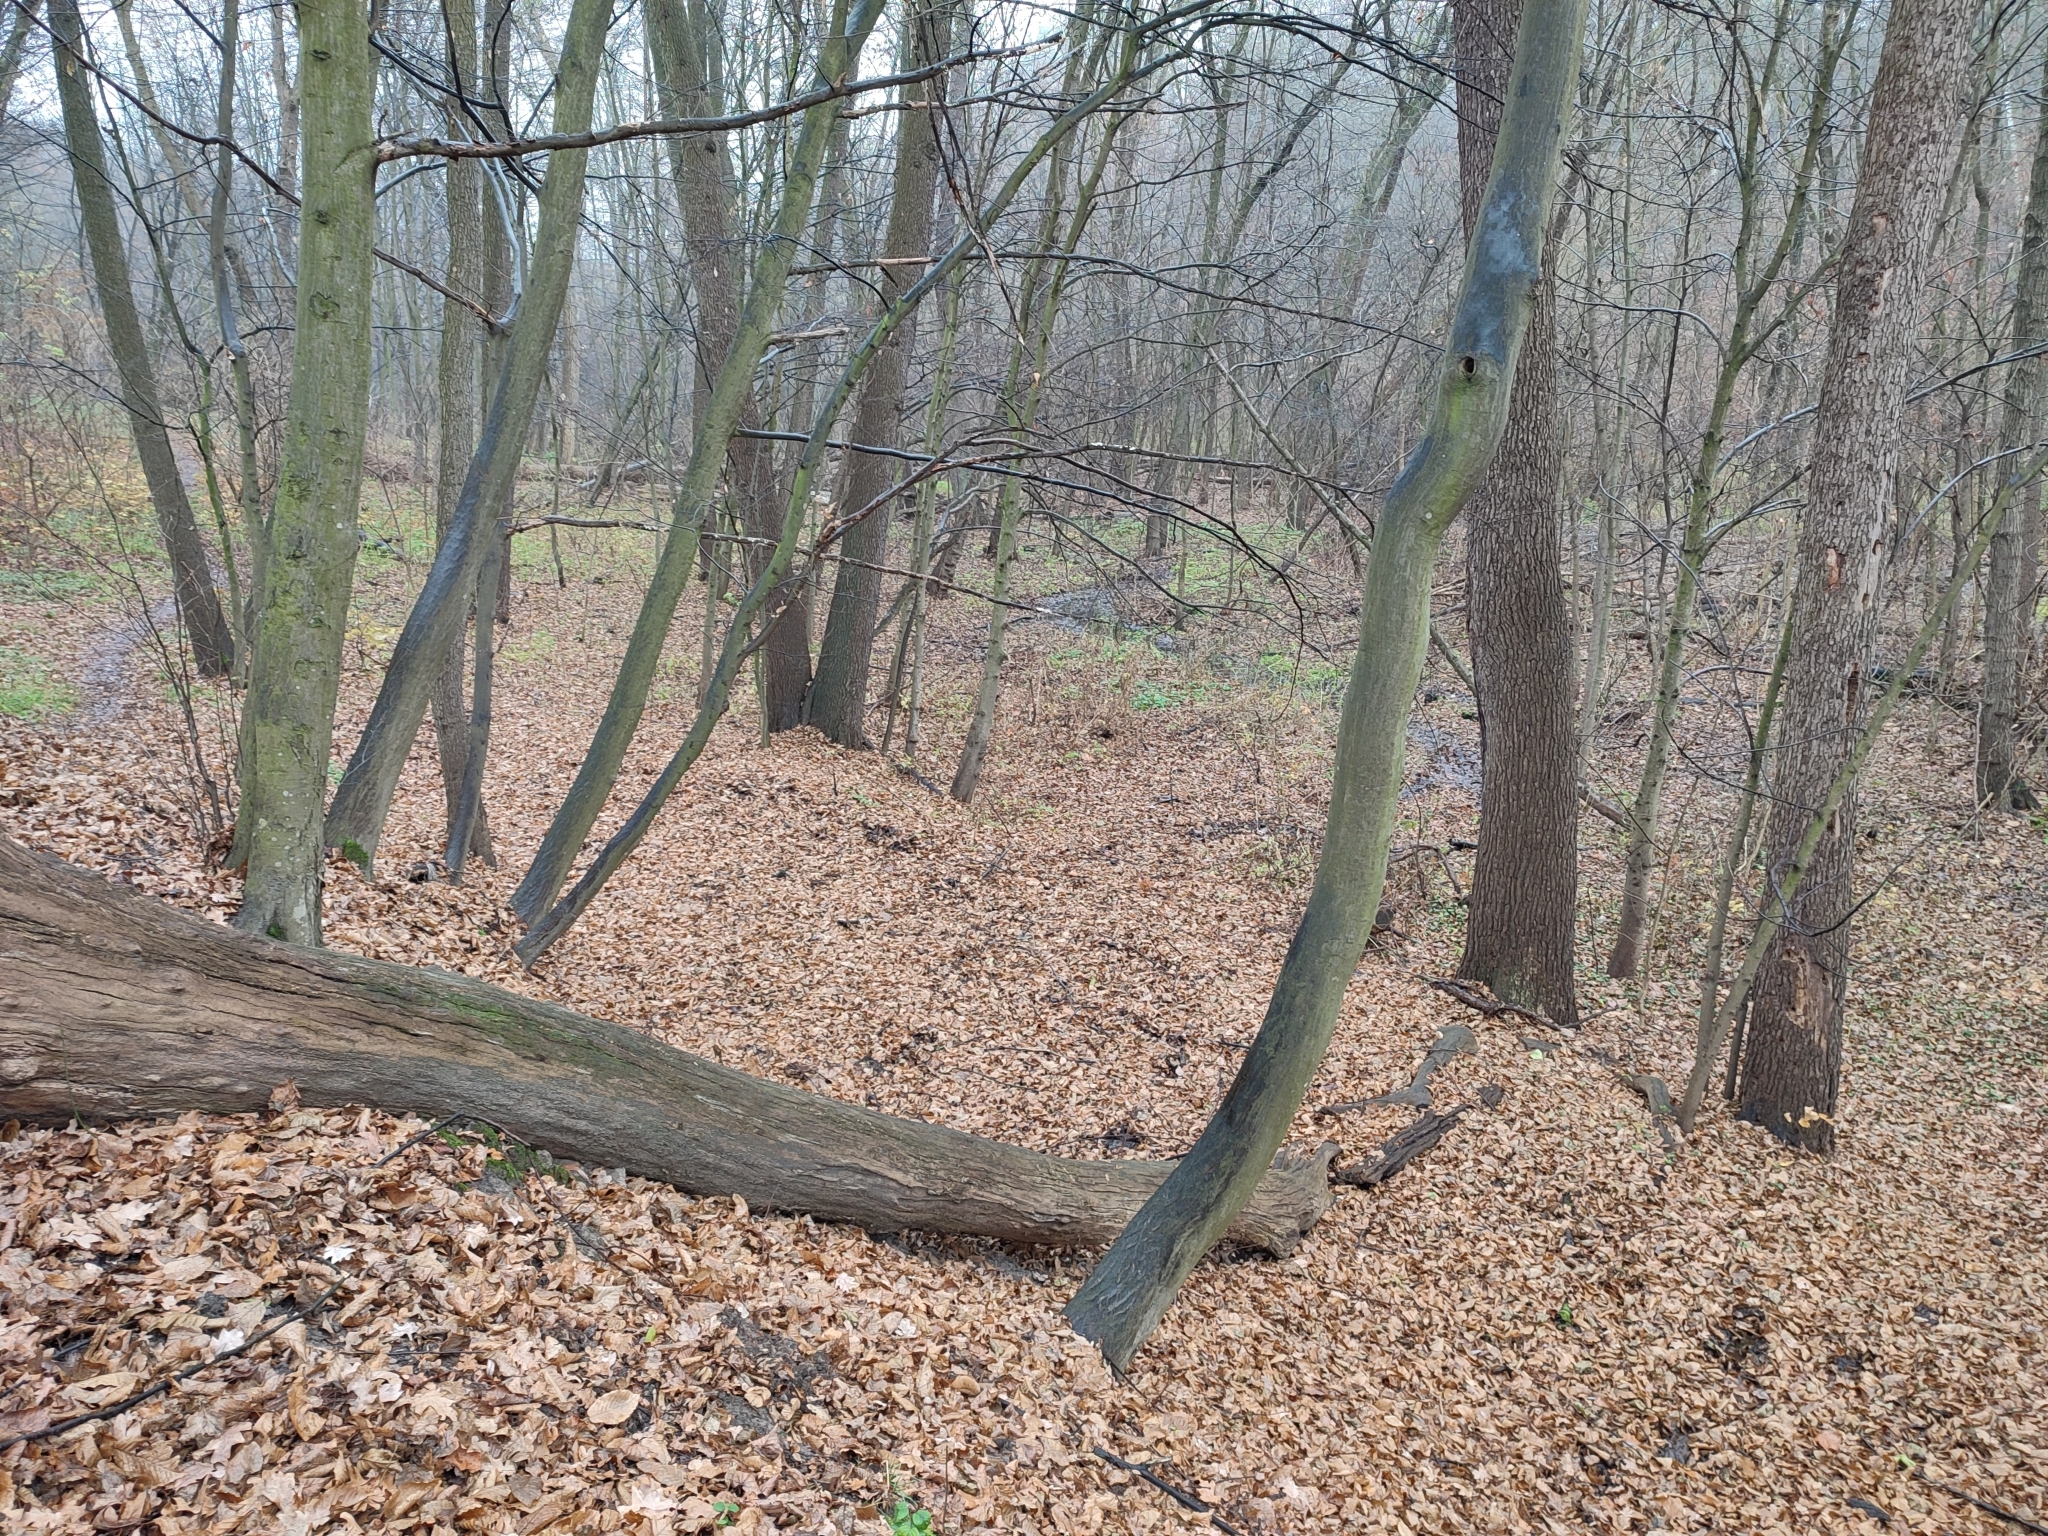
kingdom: Plantae
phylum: Tracheophyta
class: Magnoliopsida
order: Fagales
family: Betulaceae
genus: Carpinus
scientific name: Carpinus betulus
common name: Hornbeam
